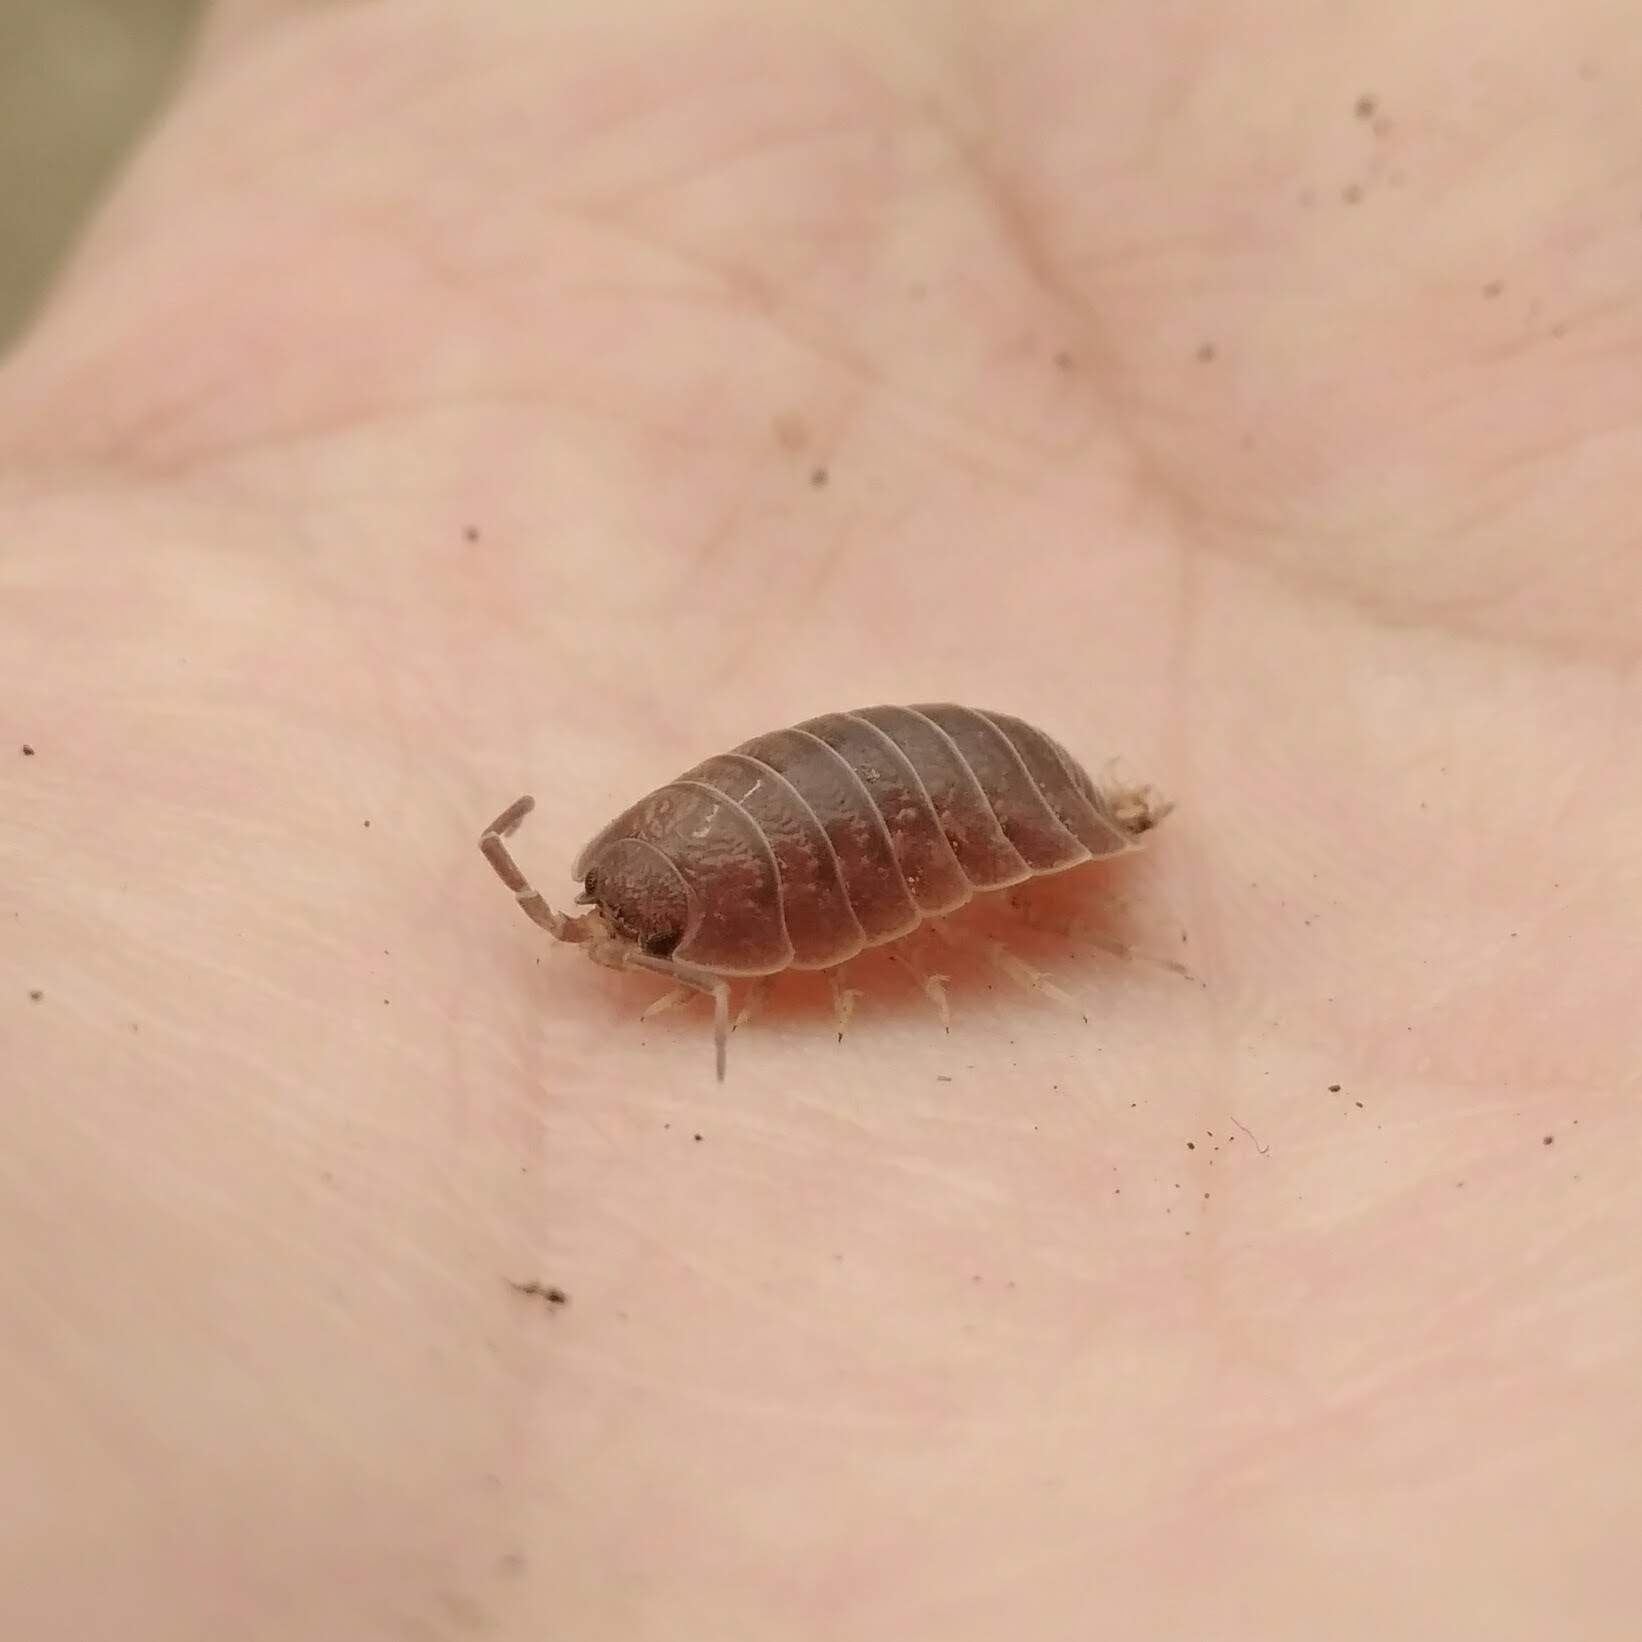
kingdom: Animalia
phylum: Arthropoda
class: Malacostraca
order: Isopoda
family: Porcellionidae
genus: Porcellio
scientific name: Porcellio laevis
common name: Swift woodlouse
